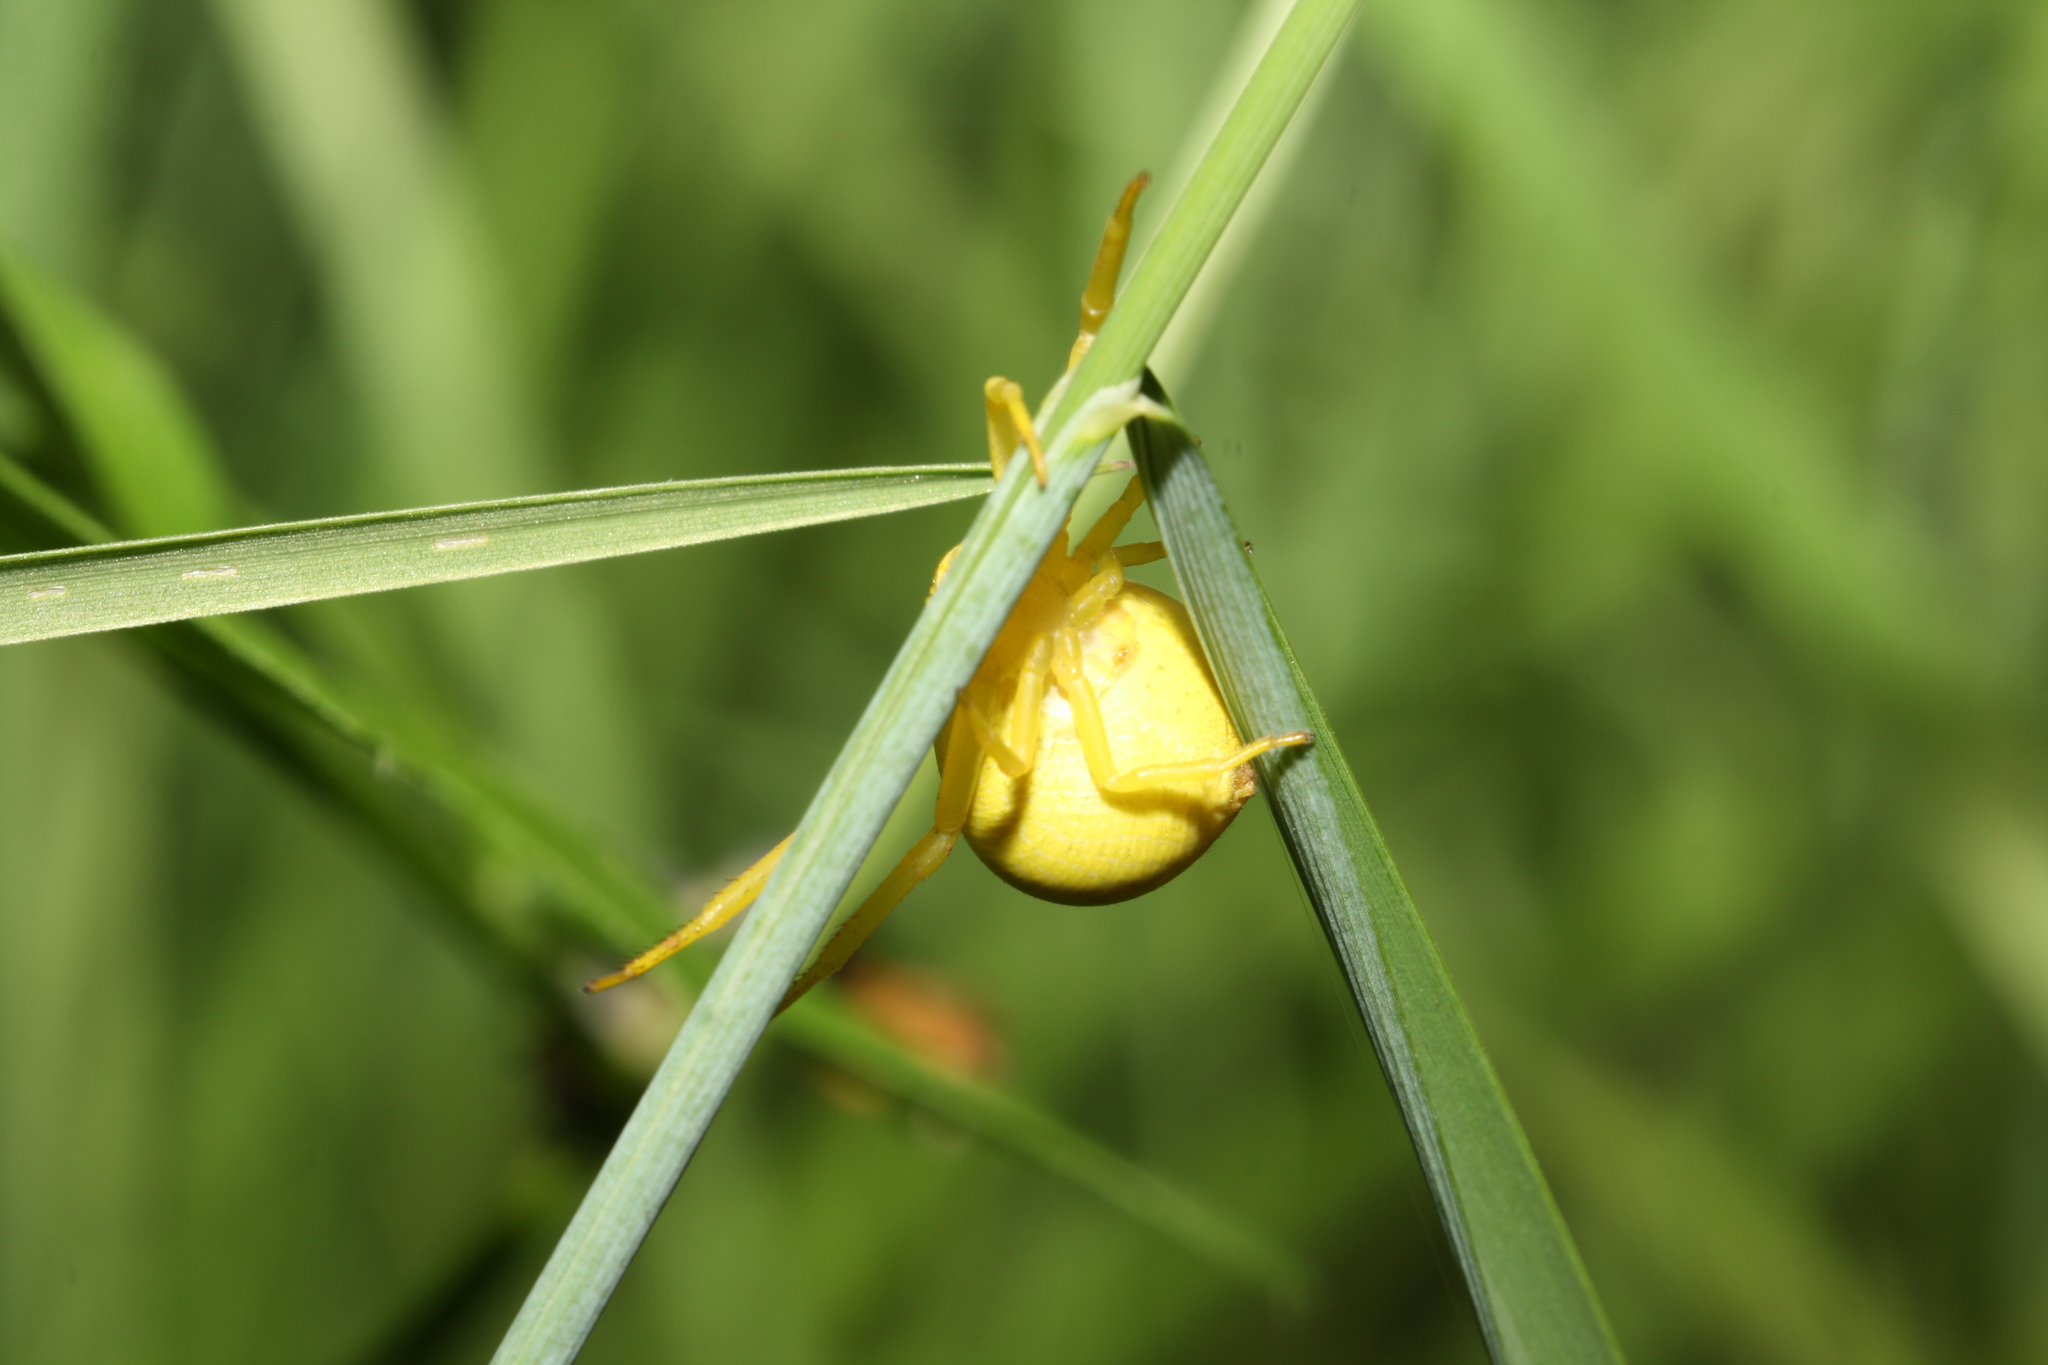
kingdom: Animalia
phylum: Arthropoda
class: Arachnida
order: Araneae
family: Thomisidae
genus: Misumena
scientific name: Misumena vatia
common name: Goldenrod crab spider
